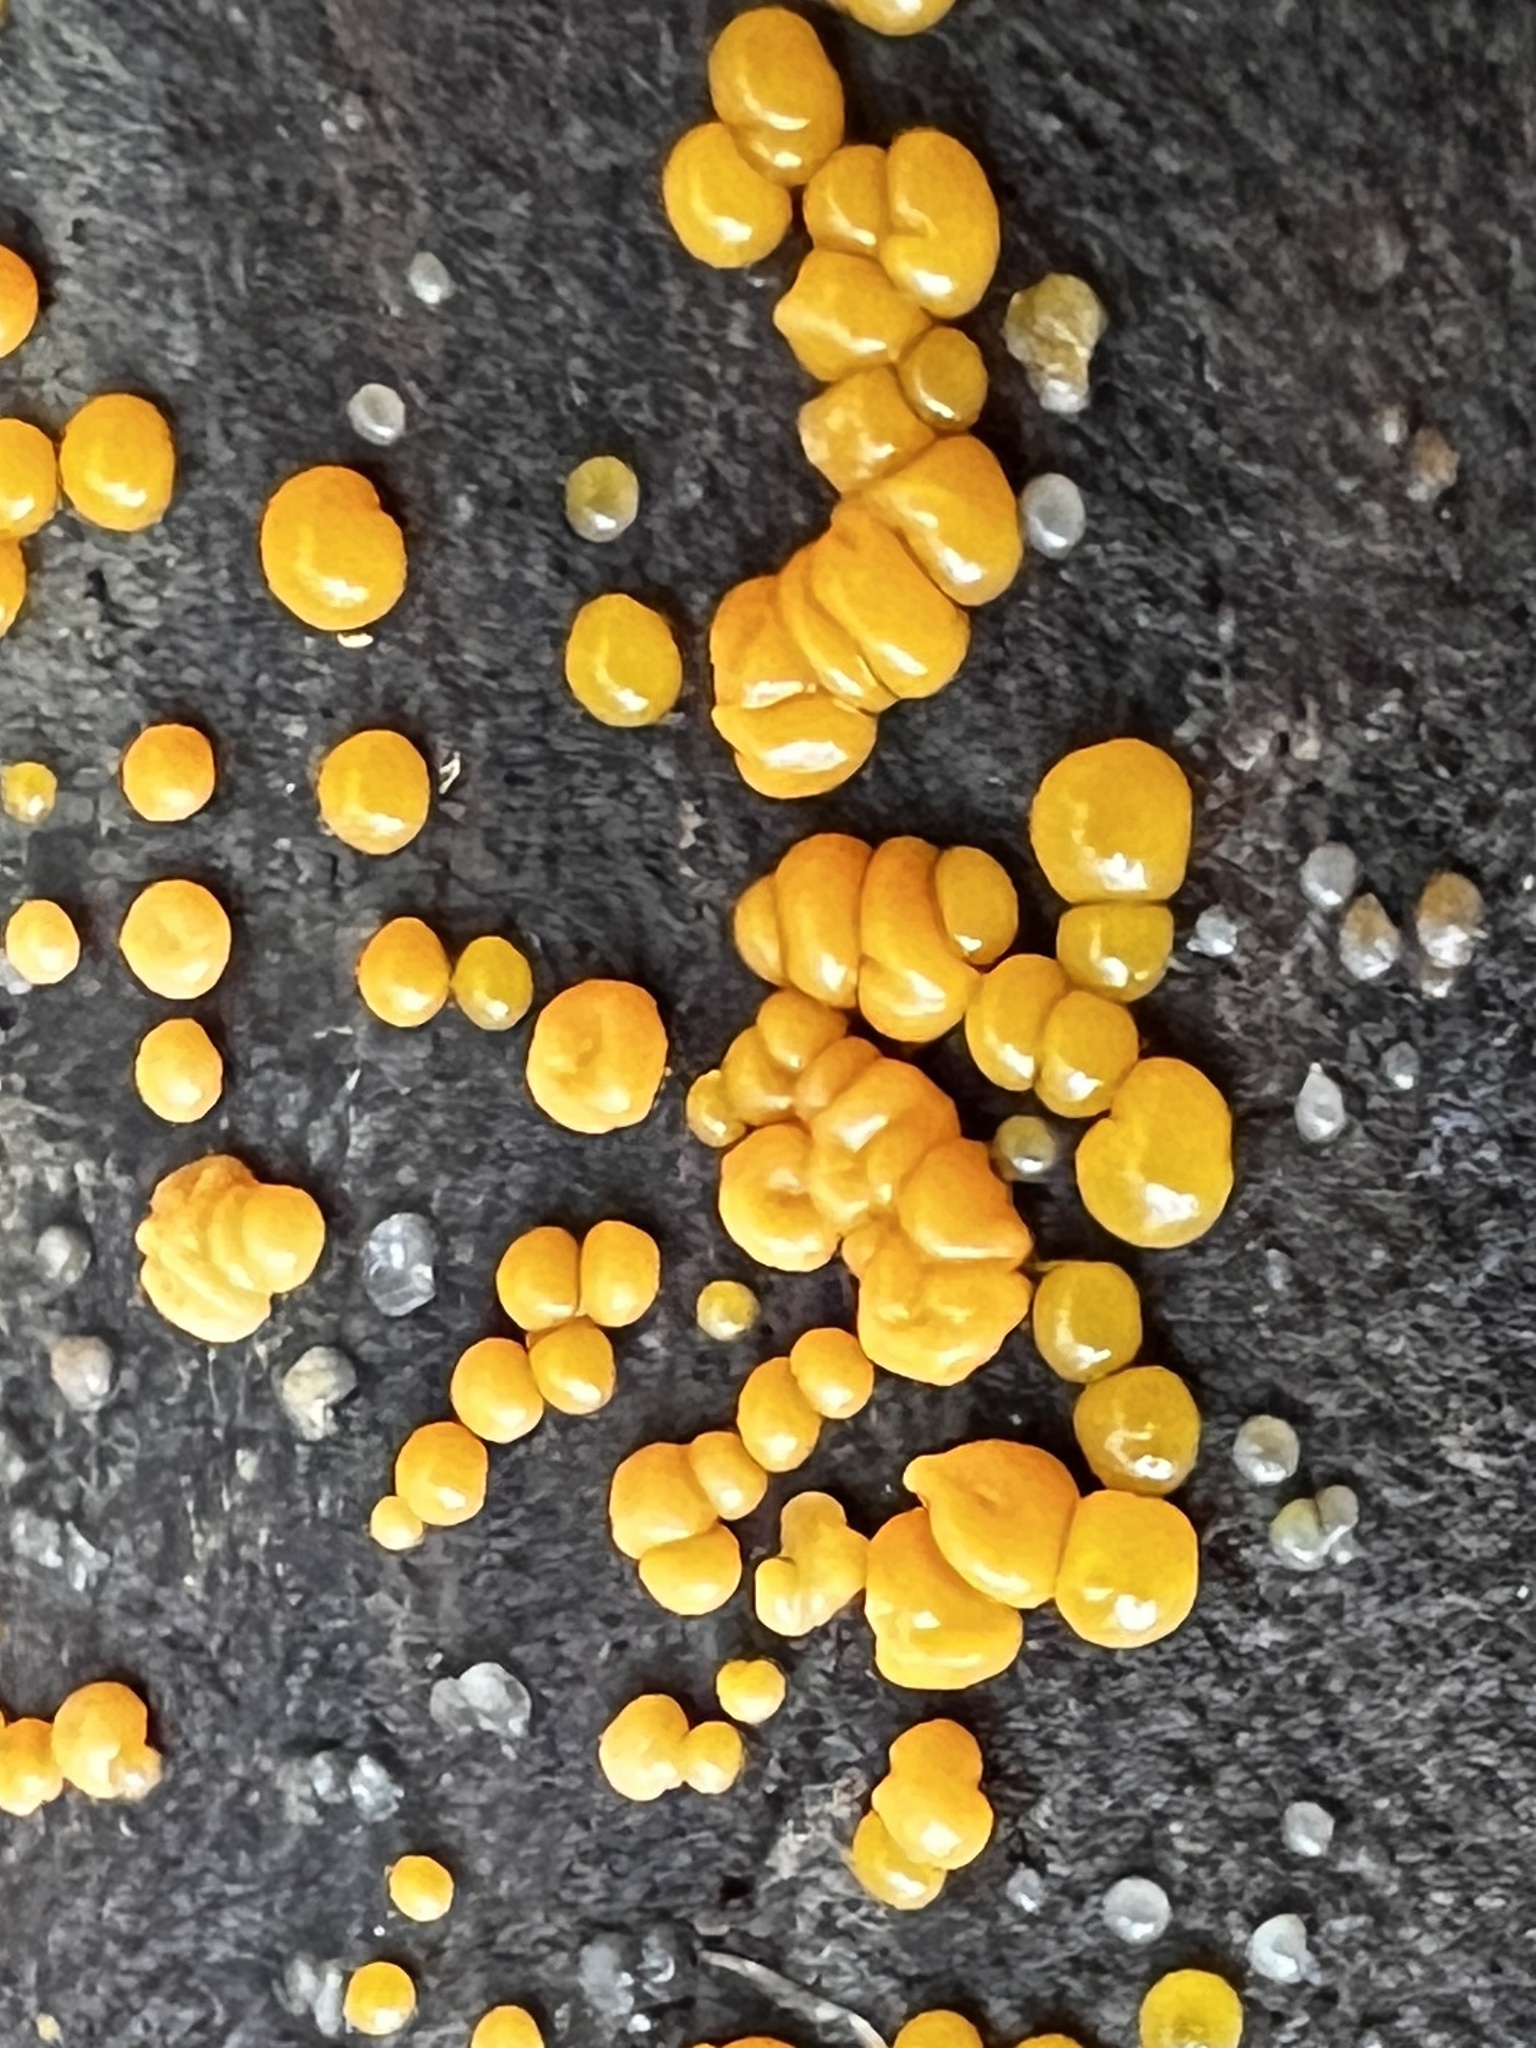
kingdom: Fungi
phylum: Basidiomycota
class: Dacrymycetes
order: Dacrymycetales
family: Dacrymycetaceae
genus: Dacrymyces
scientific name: Dacrymyces capitatus
